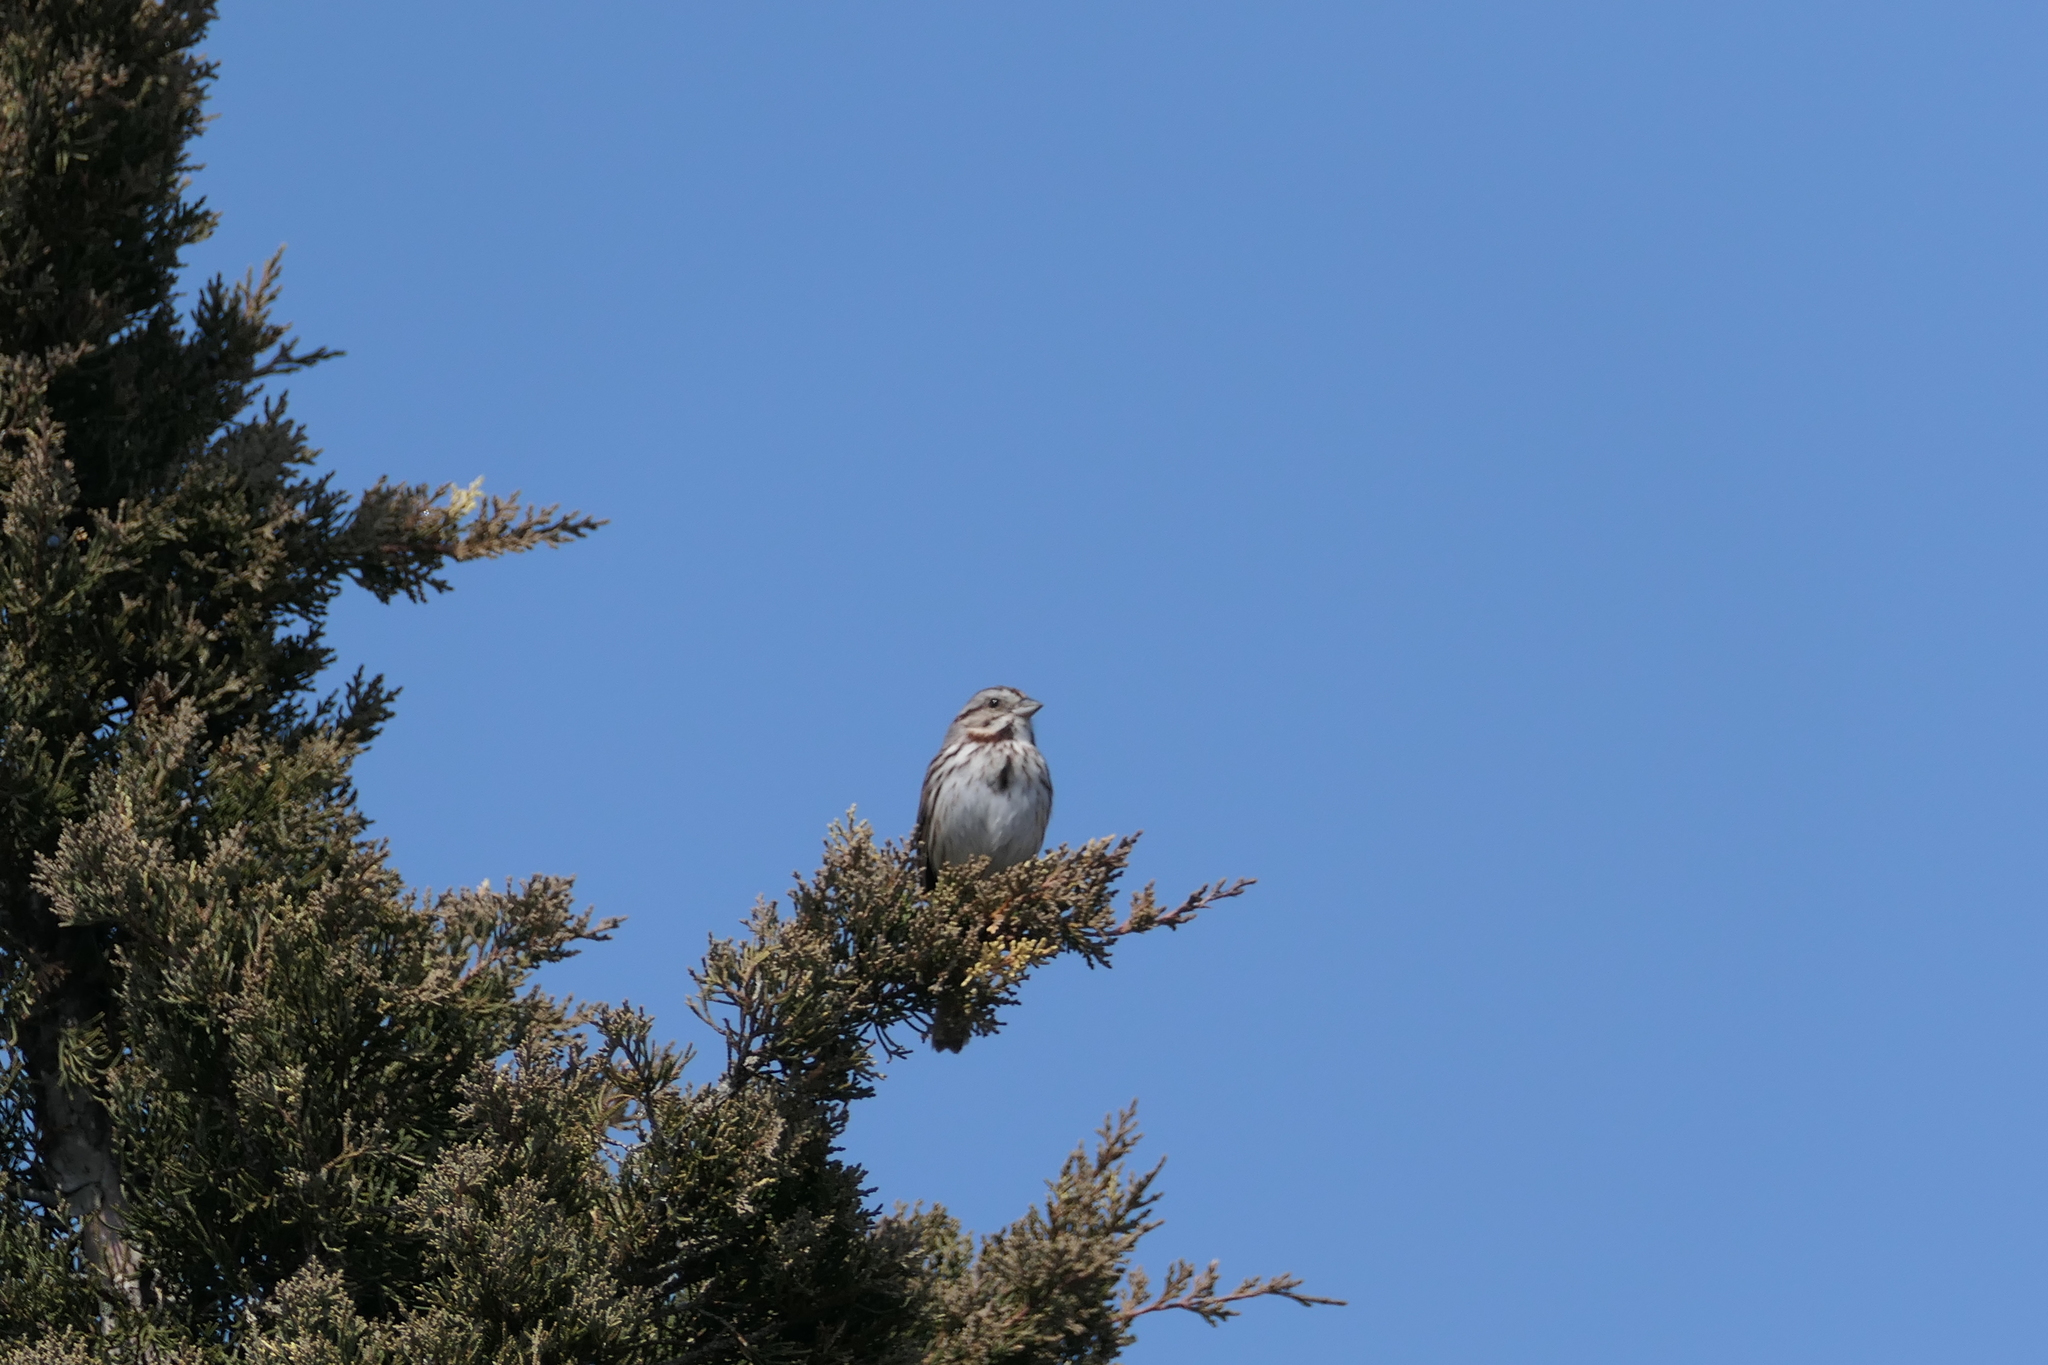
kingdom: Animalia
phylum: Chordata
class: Aves
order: Passeriformes
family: Passerellidae
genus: Melospiza
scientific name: Melospiza melodia
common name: Song sparrow
